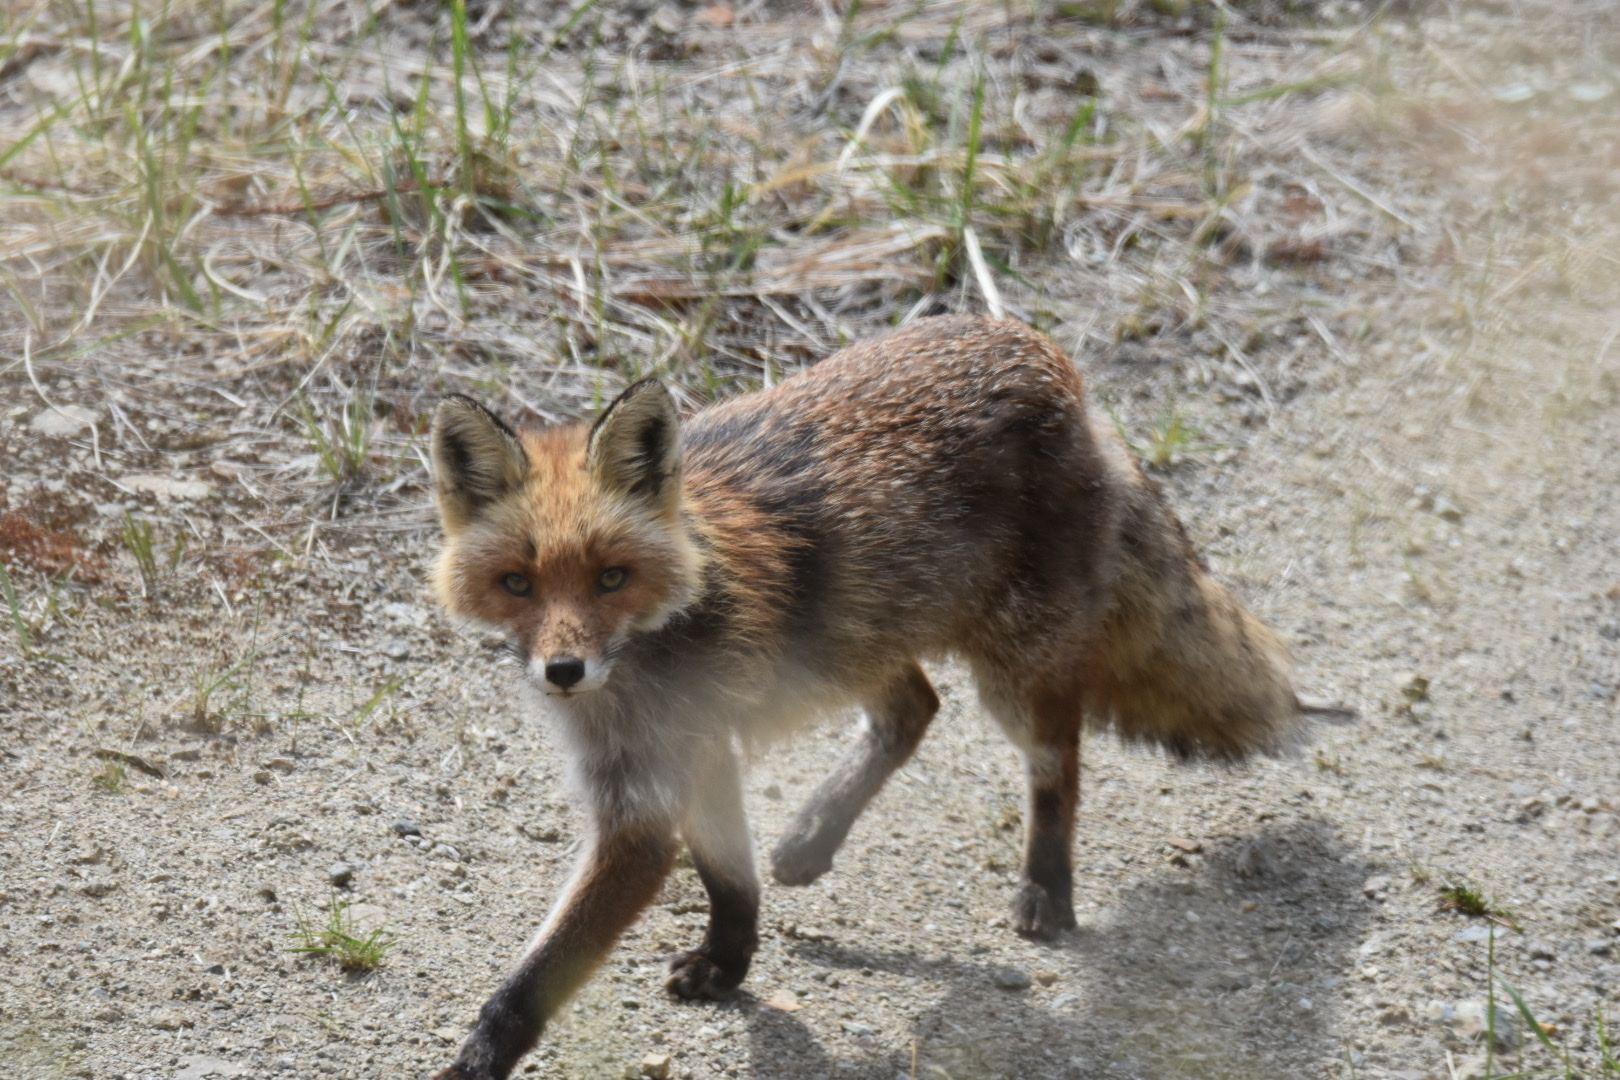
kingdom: Animalia
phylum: Chordata
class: Mammalia
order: Carnivora
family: Canidae
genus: Vulpes
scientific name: Vulpes vulpes
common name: Red fox
